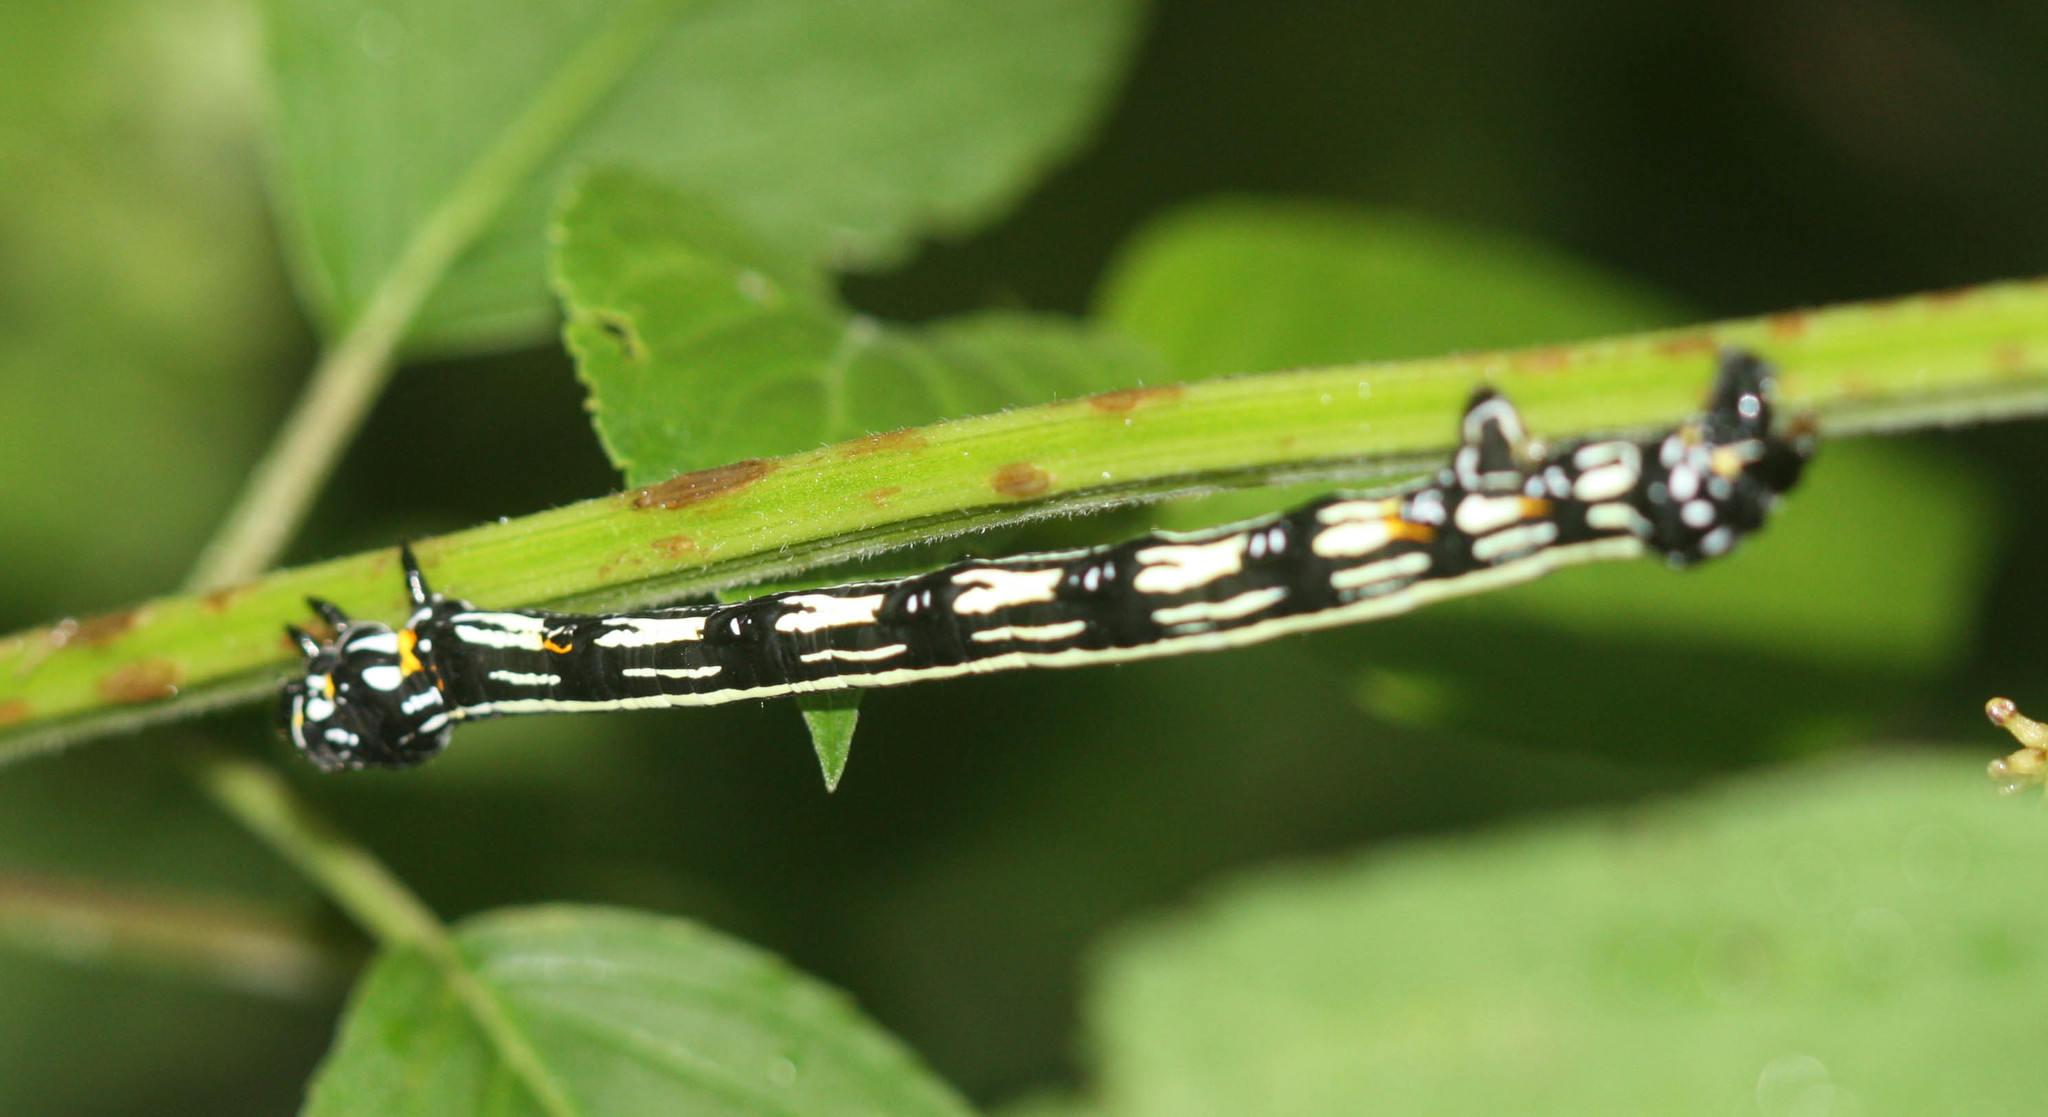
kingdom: Animalia
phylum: Arthropoda
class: Insecta
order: Lepidoptera
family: Geometridae
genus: Acronyctodes
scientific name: Acronyctodes mexicanaria
